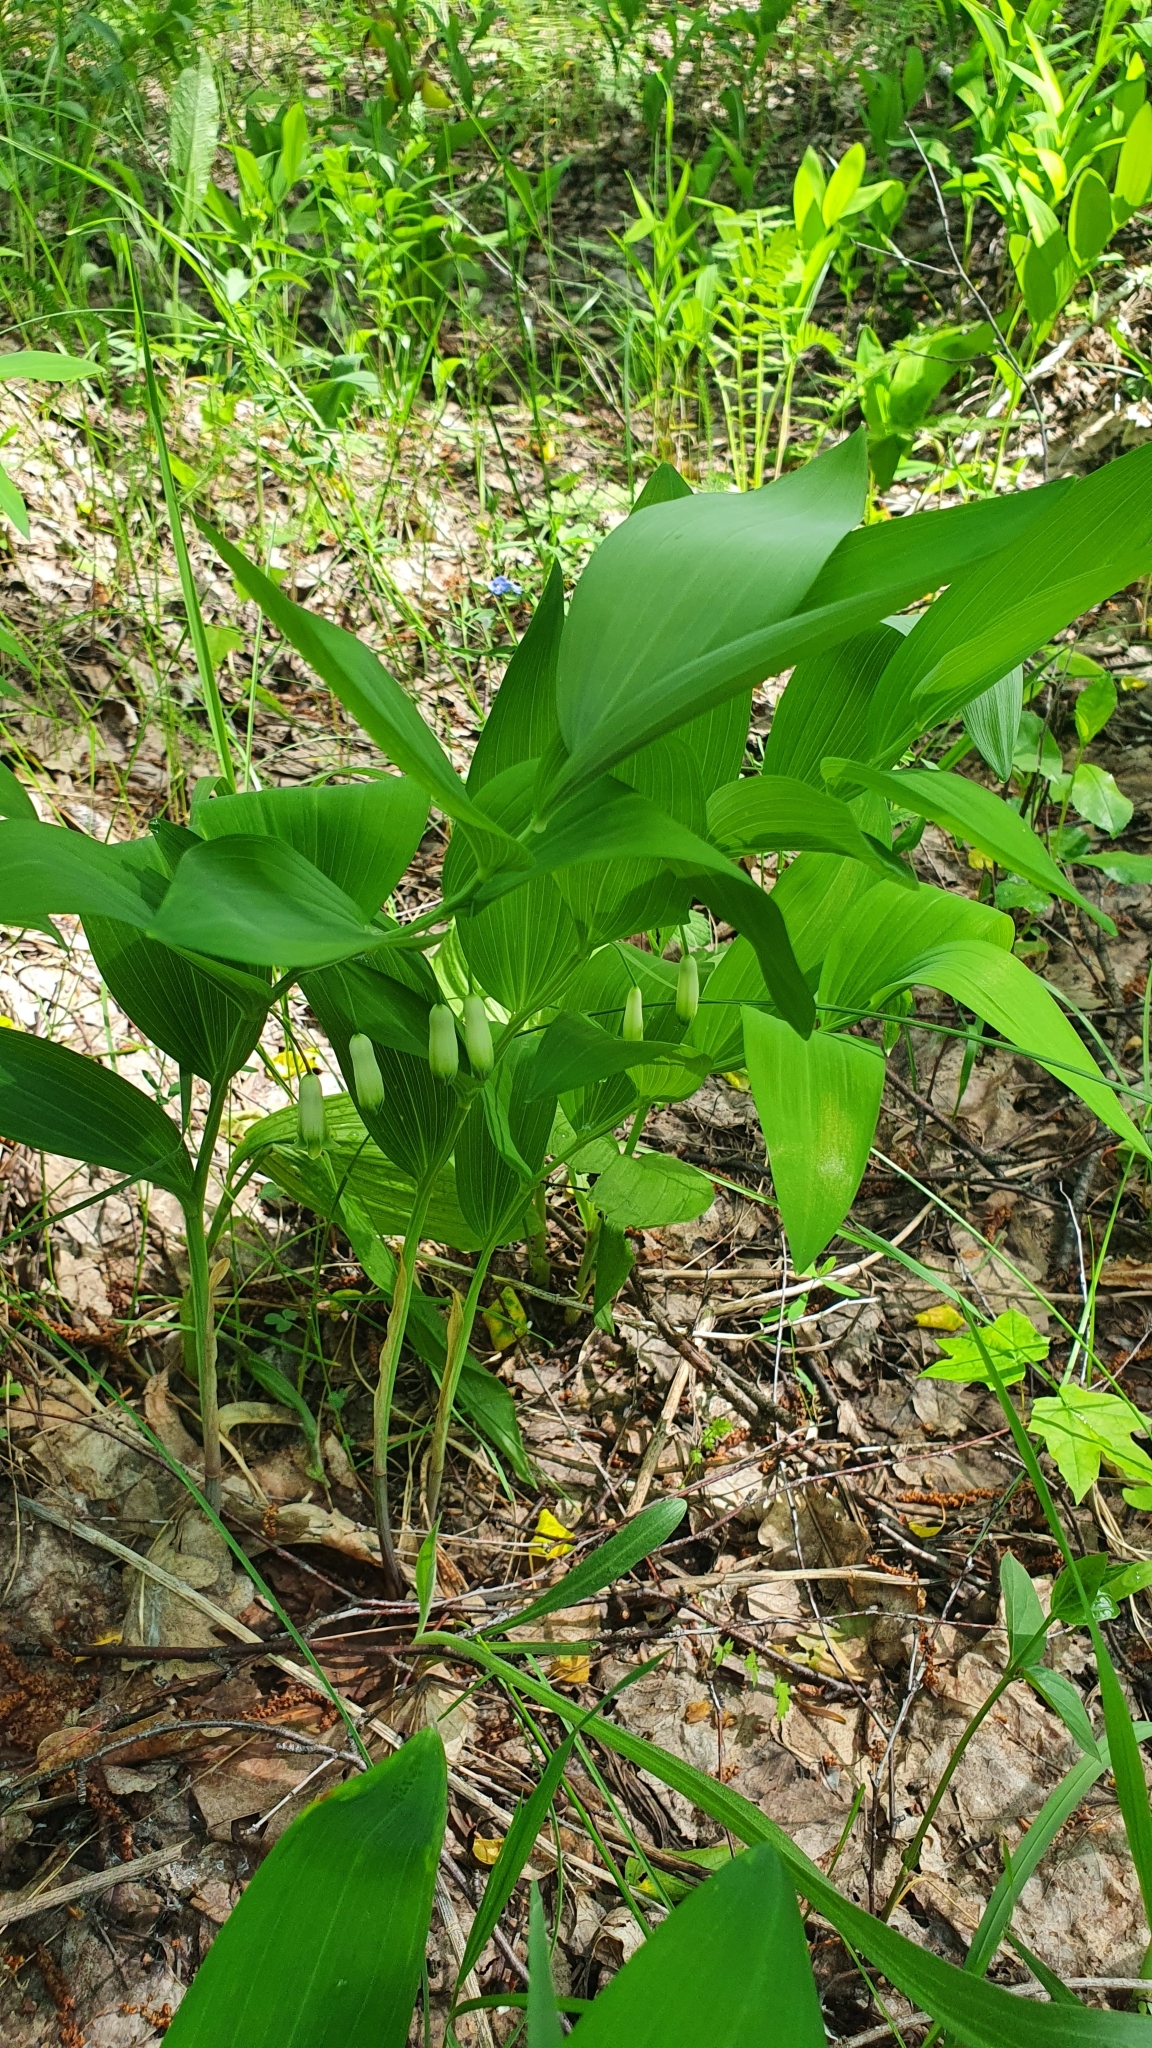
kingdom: Plantae
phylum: Tracheophyta
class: Liliopsida
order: Asparagales
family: Asparagaceae
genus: Polygonatum
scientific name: Polygonatum odoratum
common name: Angular solomon's-seal
